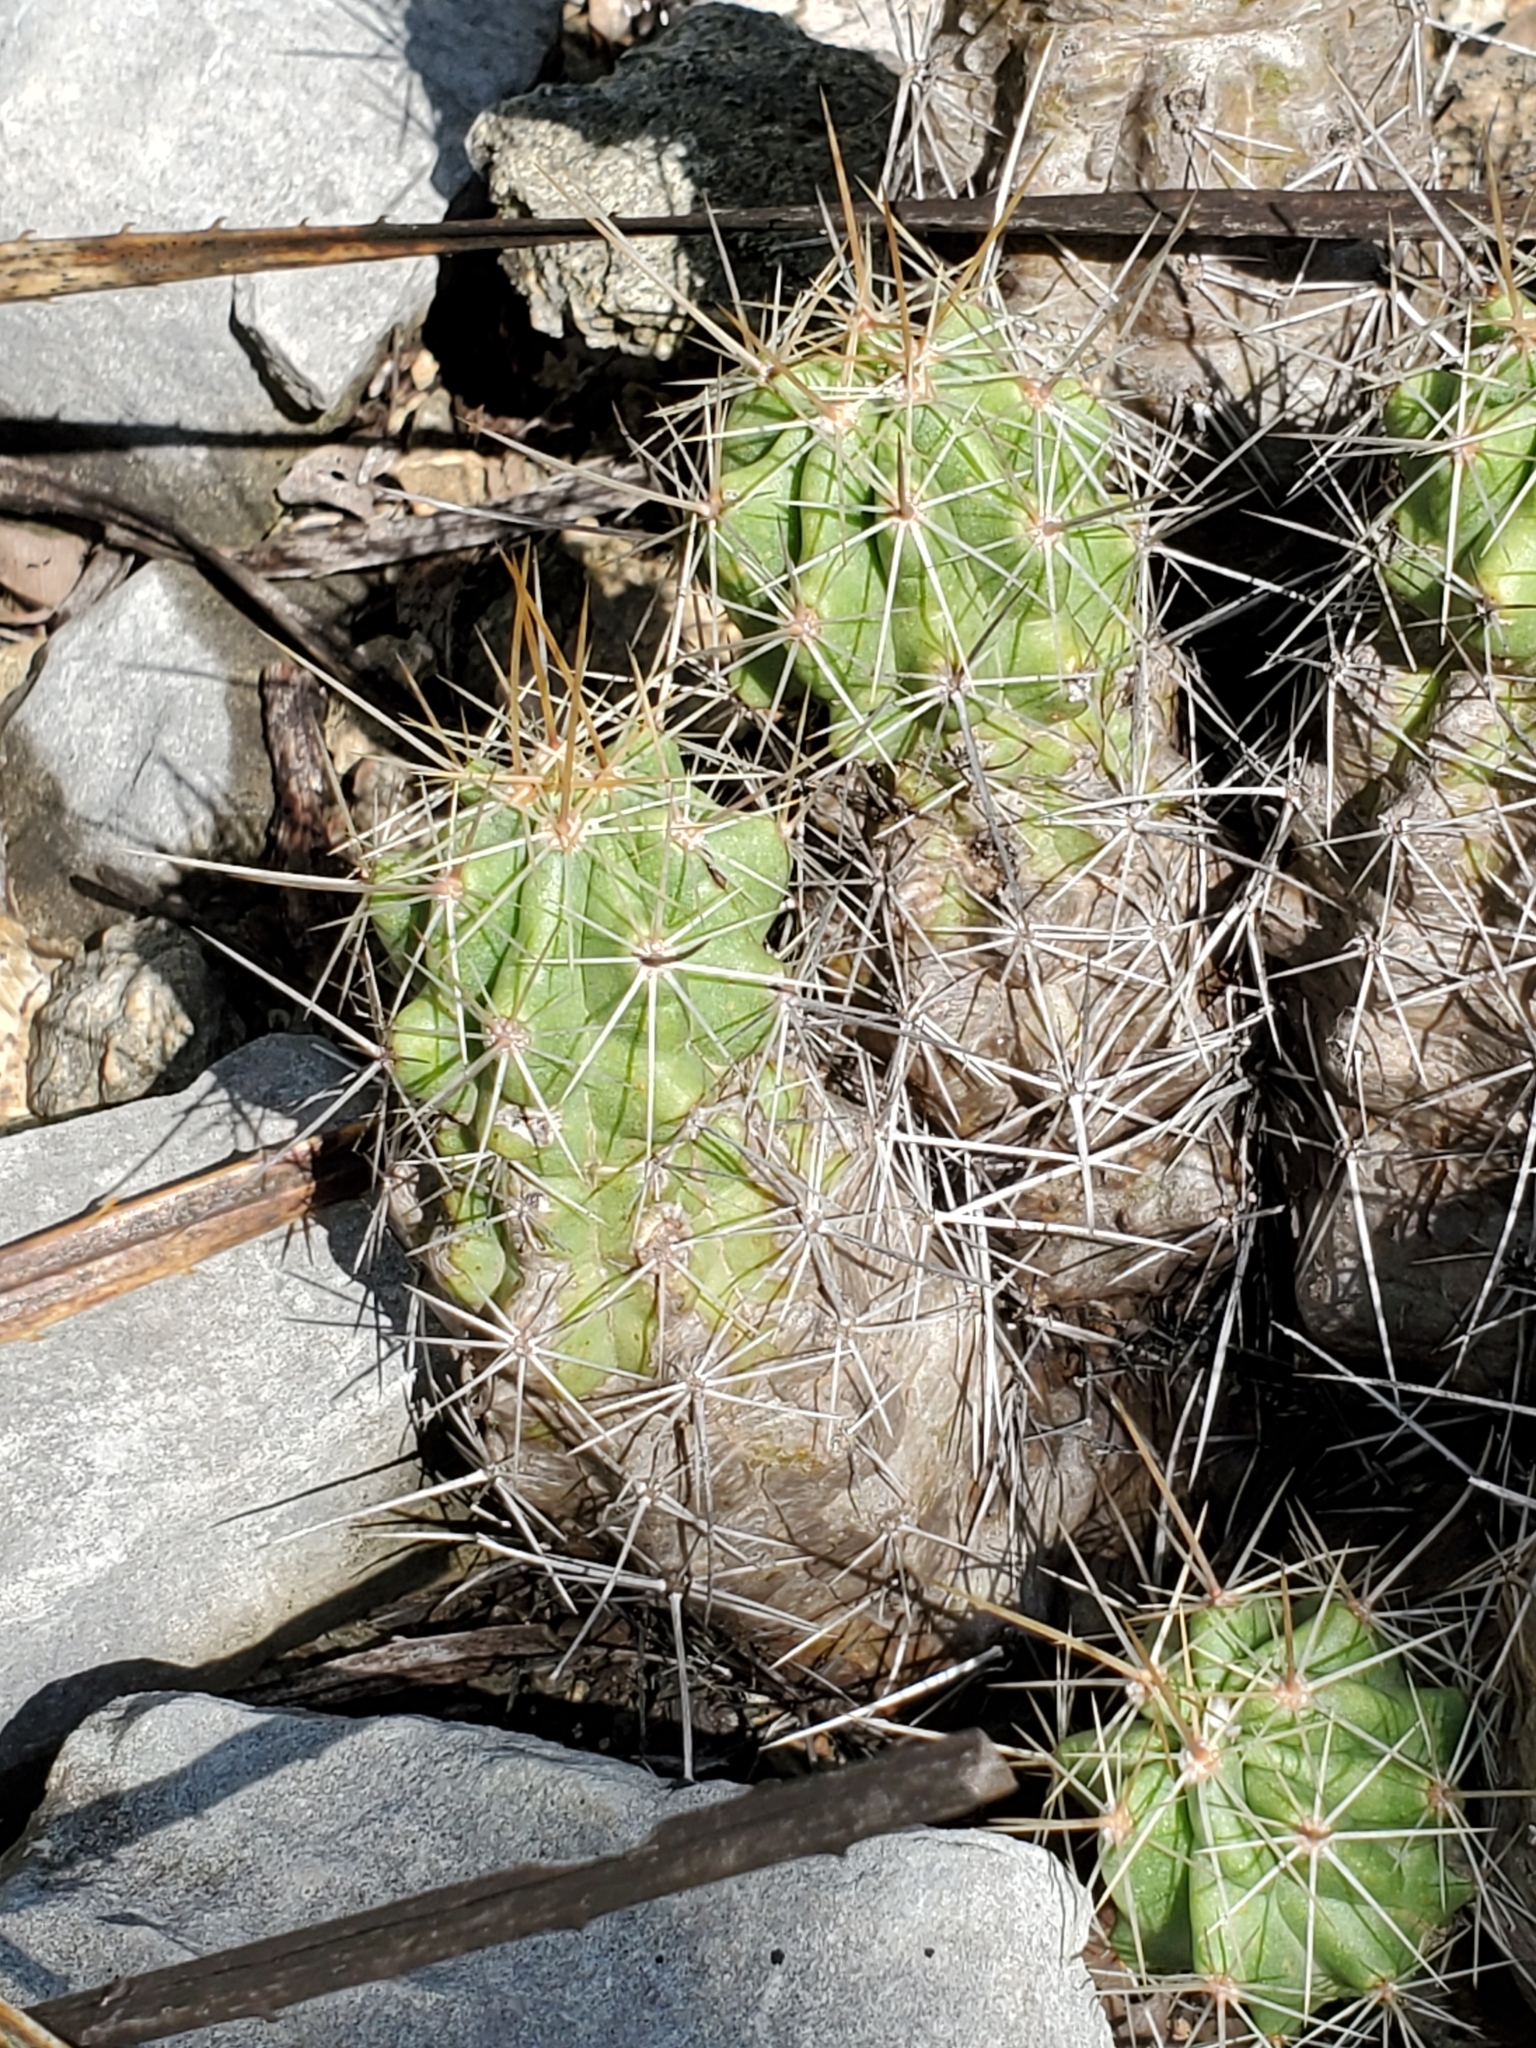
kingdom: Plantae
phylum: Tracheophyta
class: Magnoliopsida
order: Caryophyllales
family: Cactaceae
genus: Echinocereus
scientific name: Echinocereus enneacanthus
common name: Pitaya
